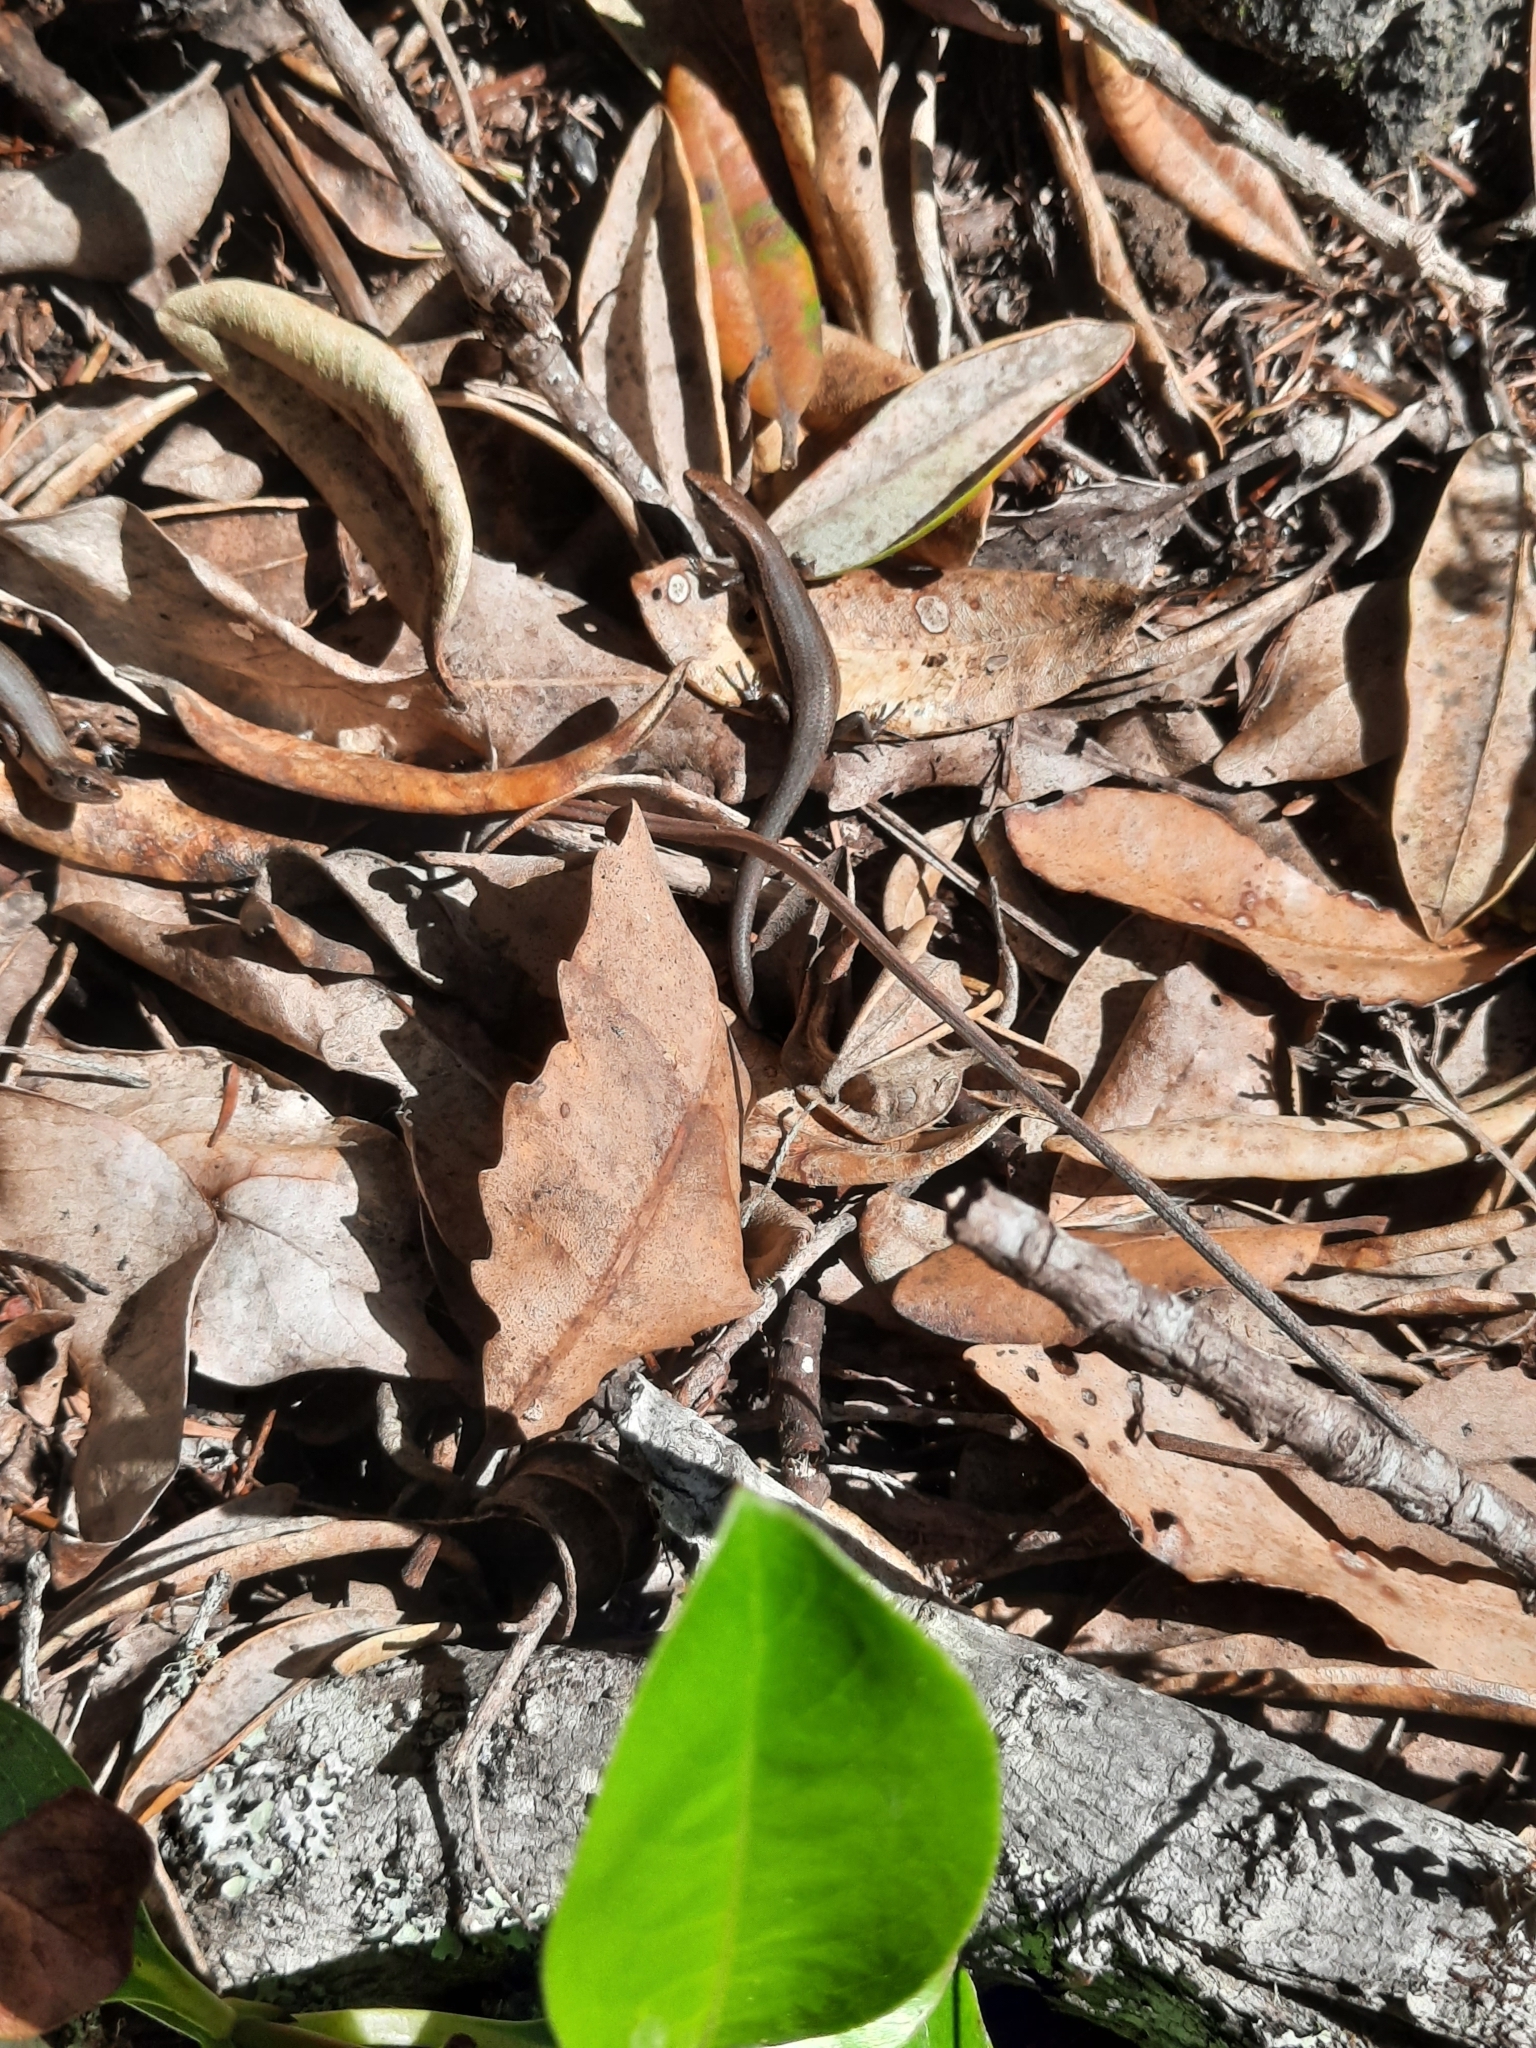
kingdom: Animalia
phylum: Chordata
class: Squamata
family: Scincidae
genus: Lampropholis
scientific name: Lampropholis delicata
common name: Plague skink
